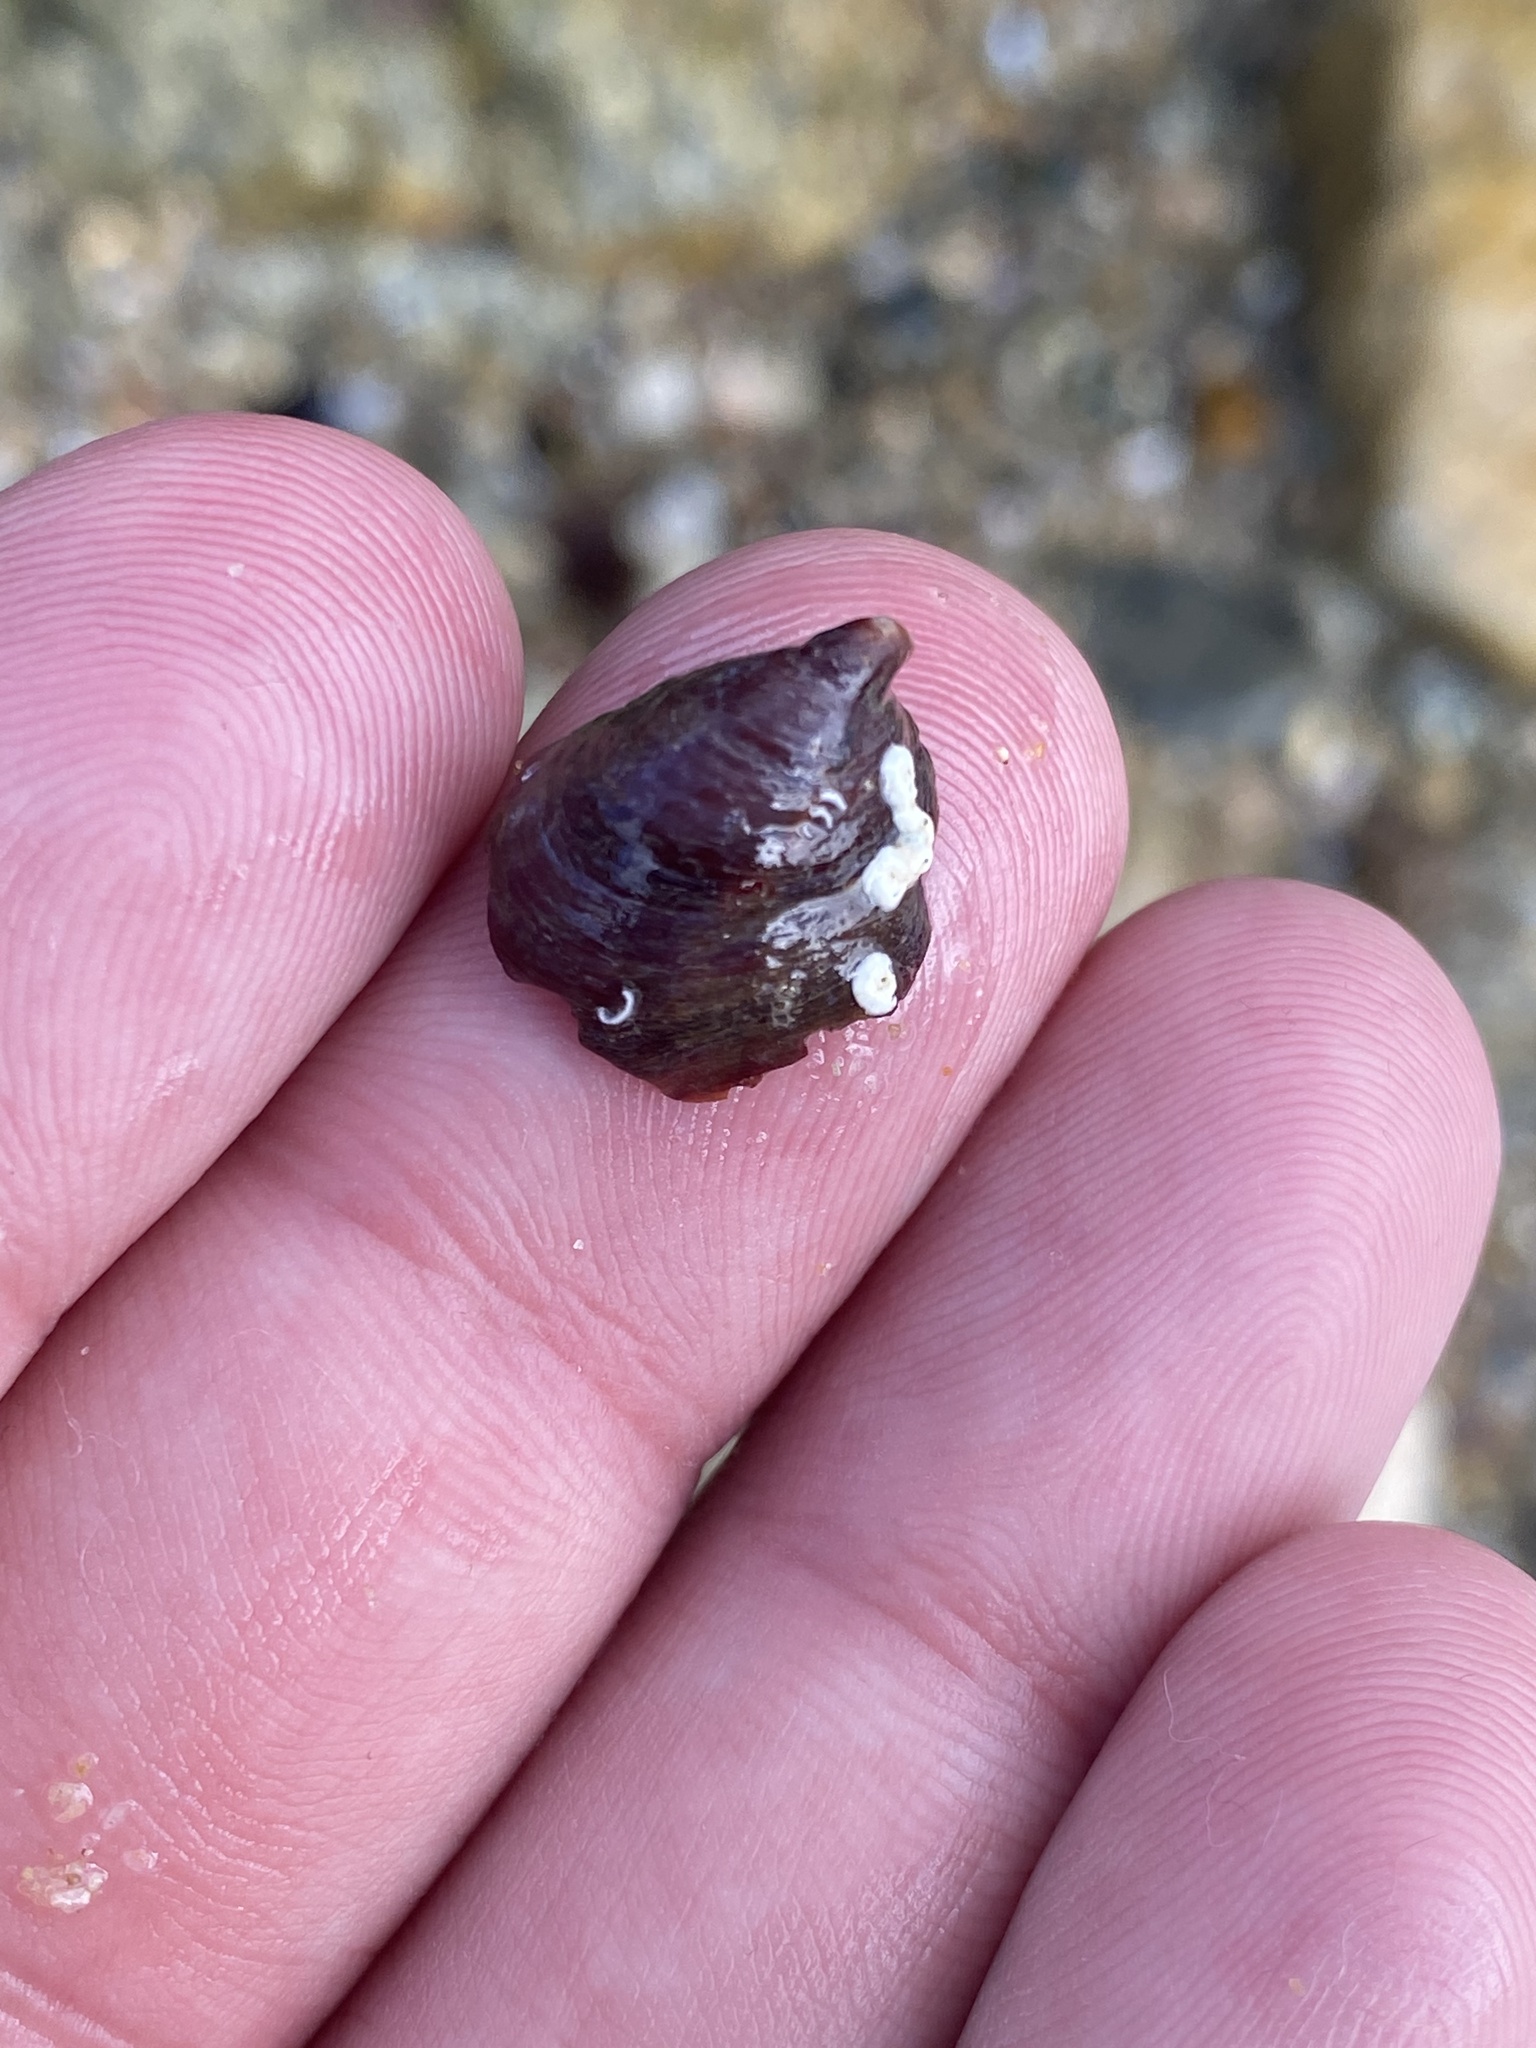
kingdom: Animalia
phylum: Mollusca
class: Gastropoda
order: Littorinimorpha
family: Calyptraeidae
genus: Crepidula
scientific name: Crepidula adunca
